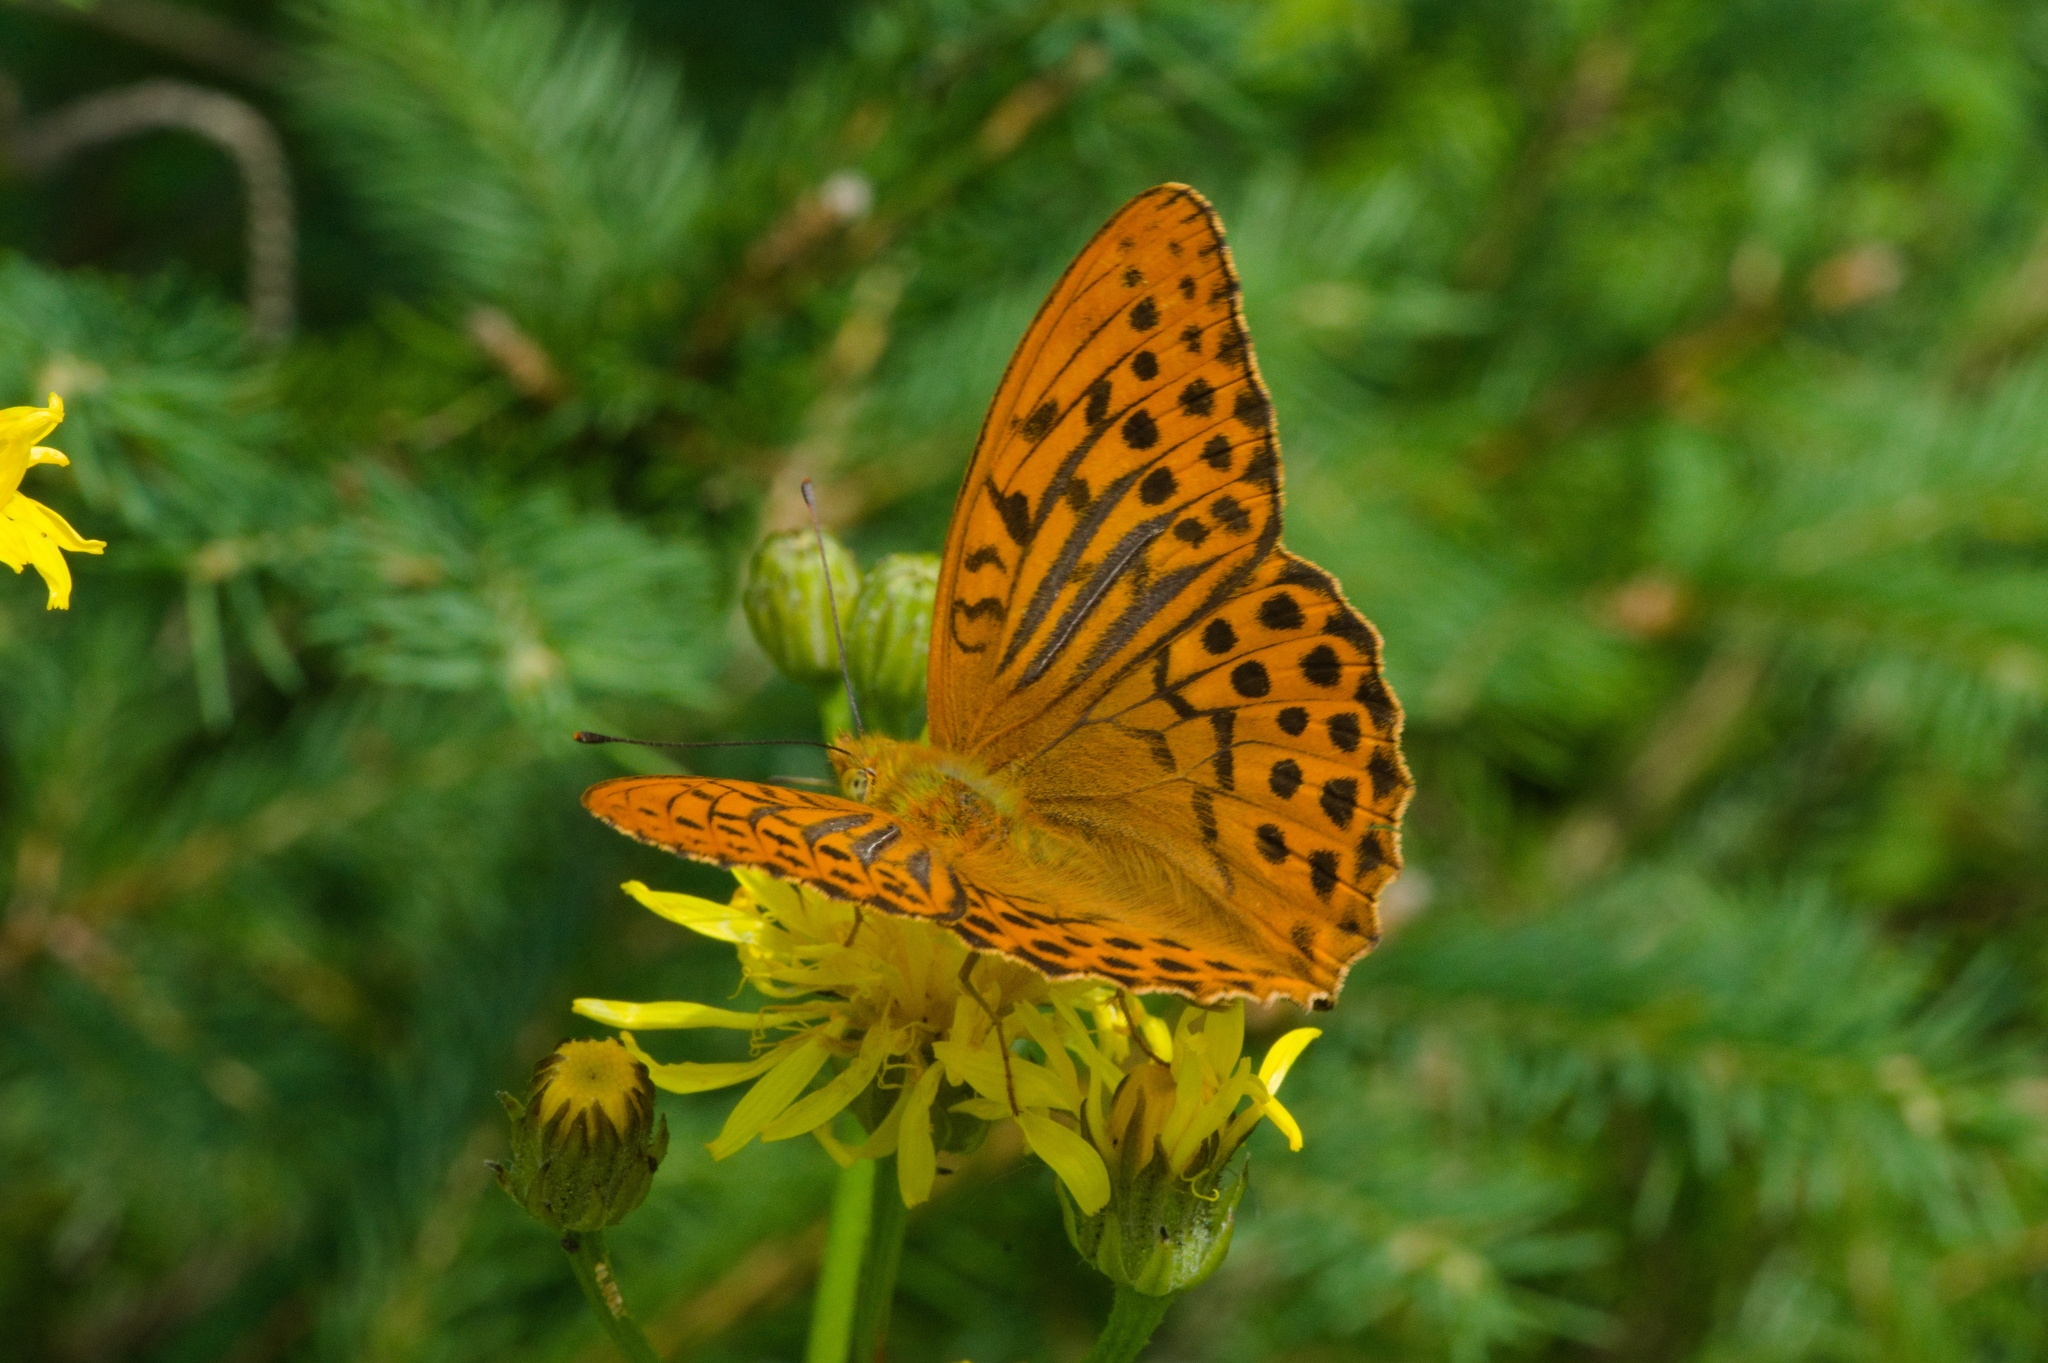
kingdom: Animalia
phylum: Arthropoda
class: Insecta
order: Lepidoptera
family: Nymphalidae
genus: Argynnis
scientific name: Argynnis paphia
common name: Silver-washed fritillary
